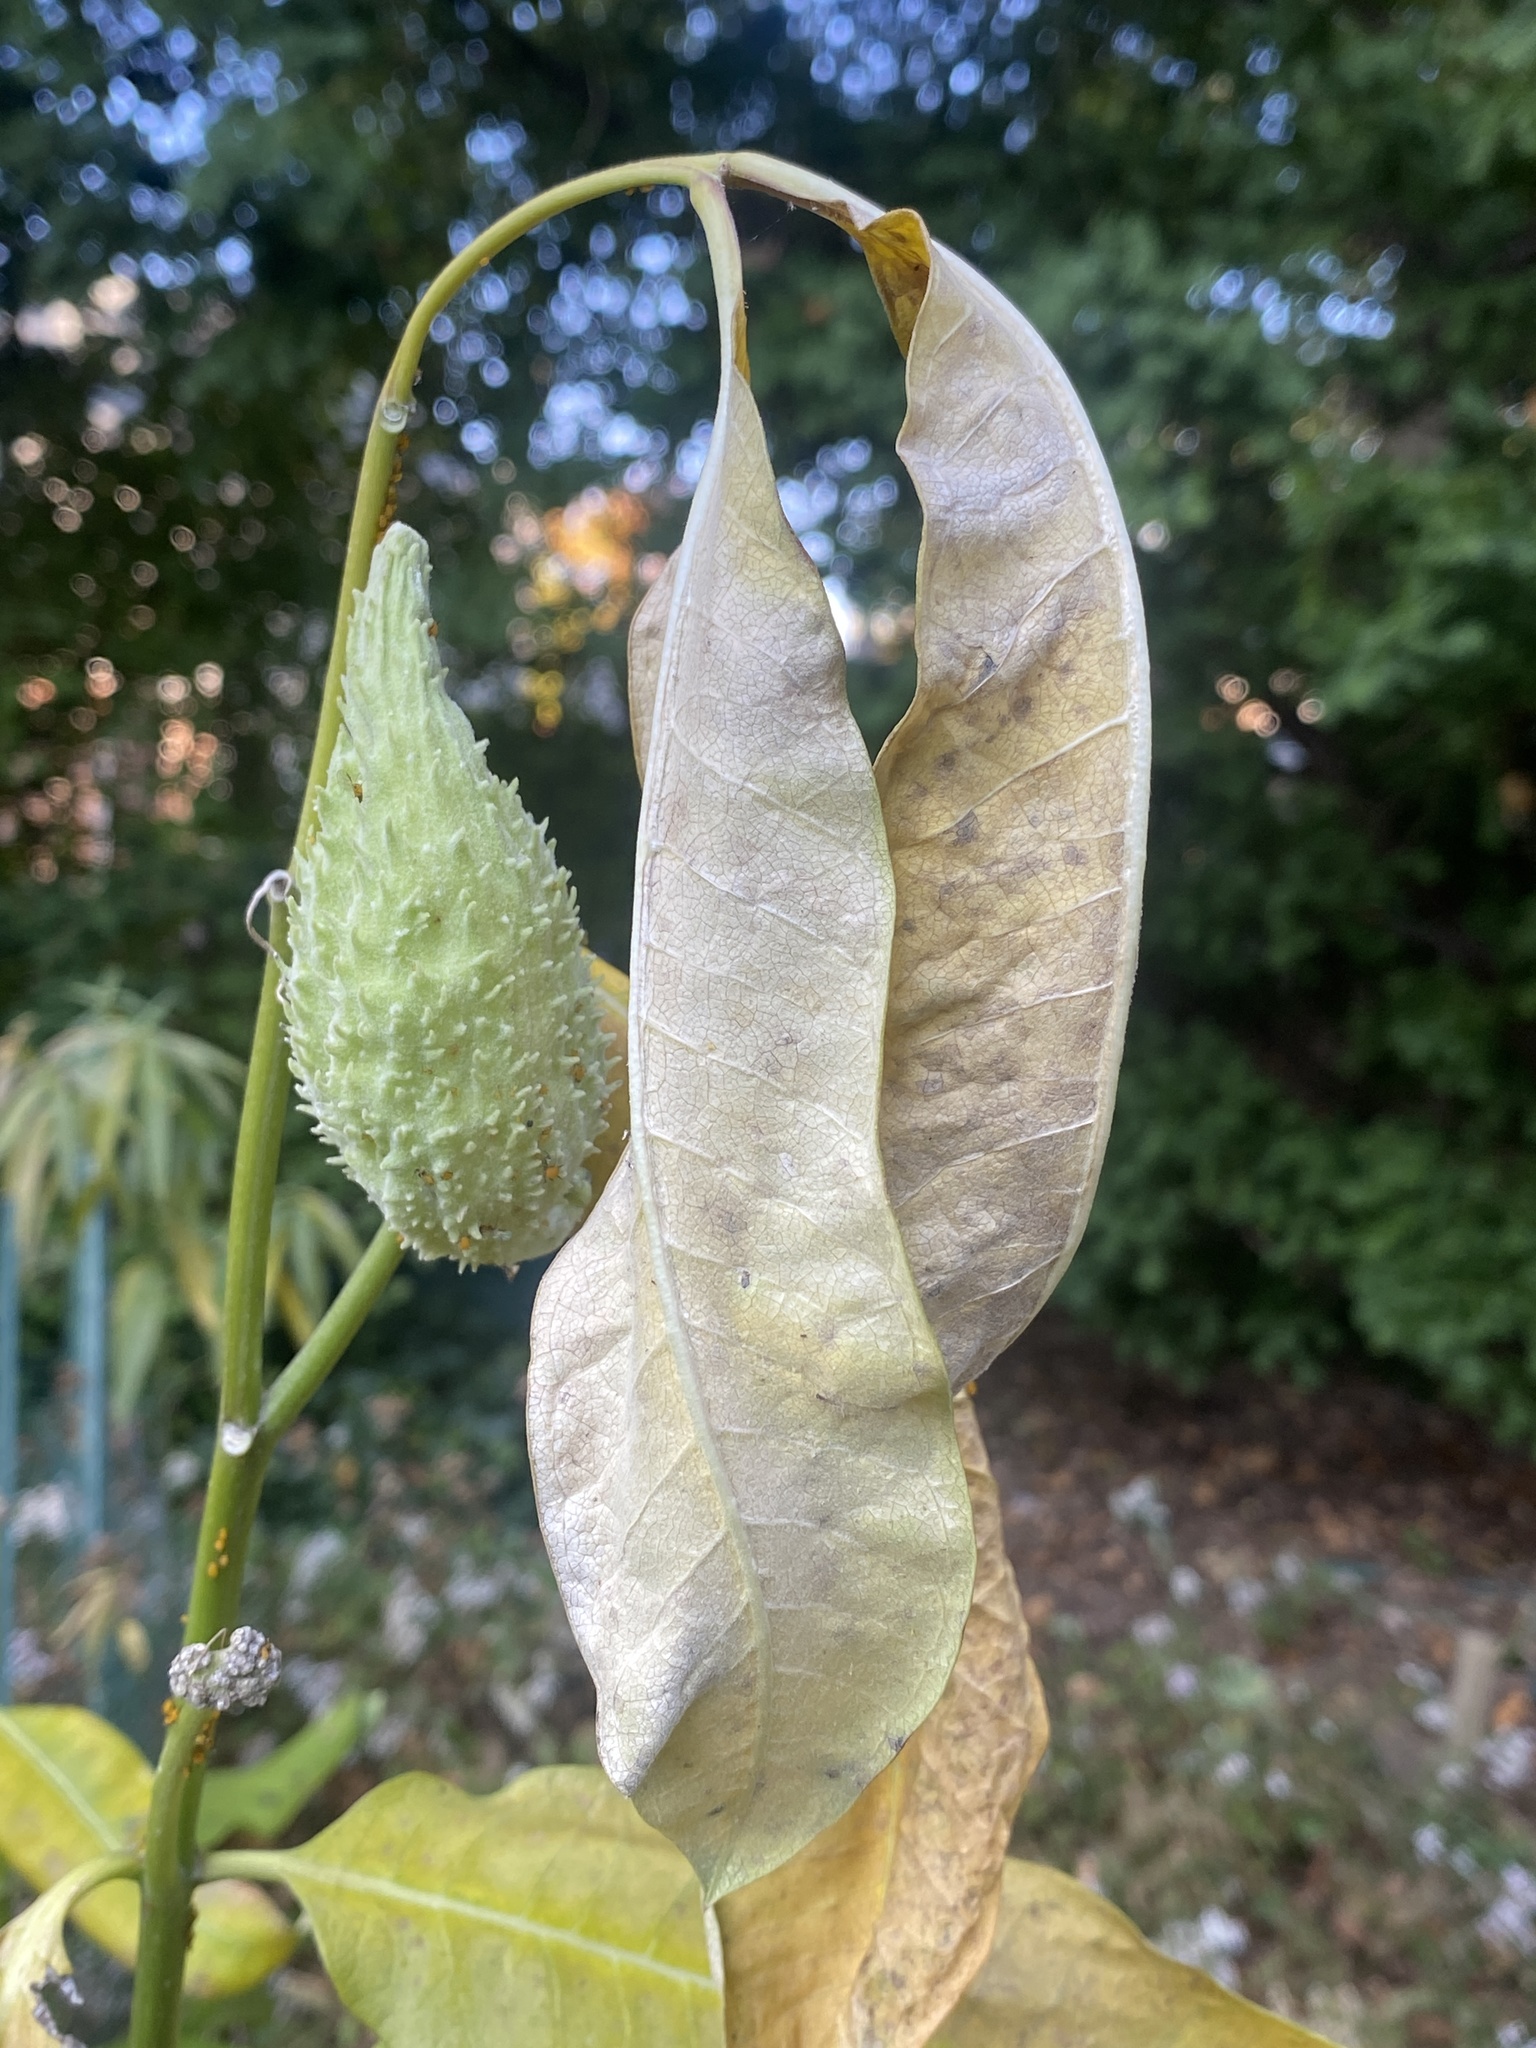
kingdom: Plantae
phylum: Tracheophyta
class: Magnoliopsida
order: Gentianales
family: Apocynaceae
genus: Asclepias
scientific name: Asclepias syriaca
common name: Common milkweed
